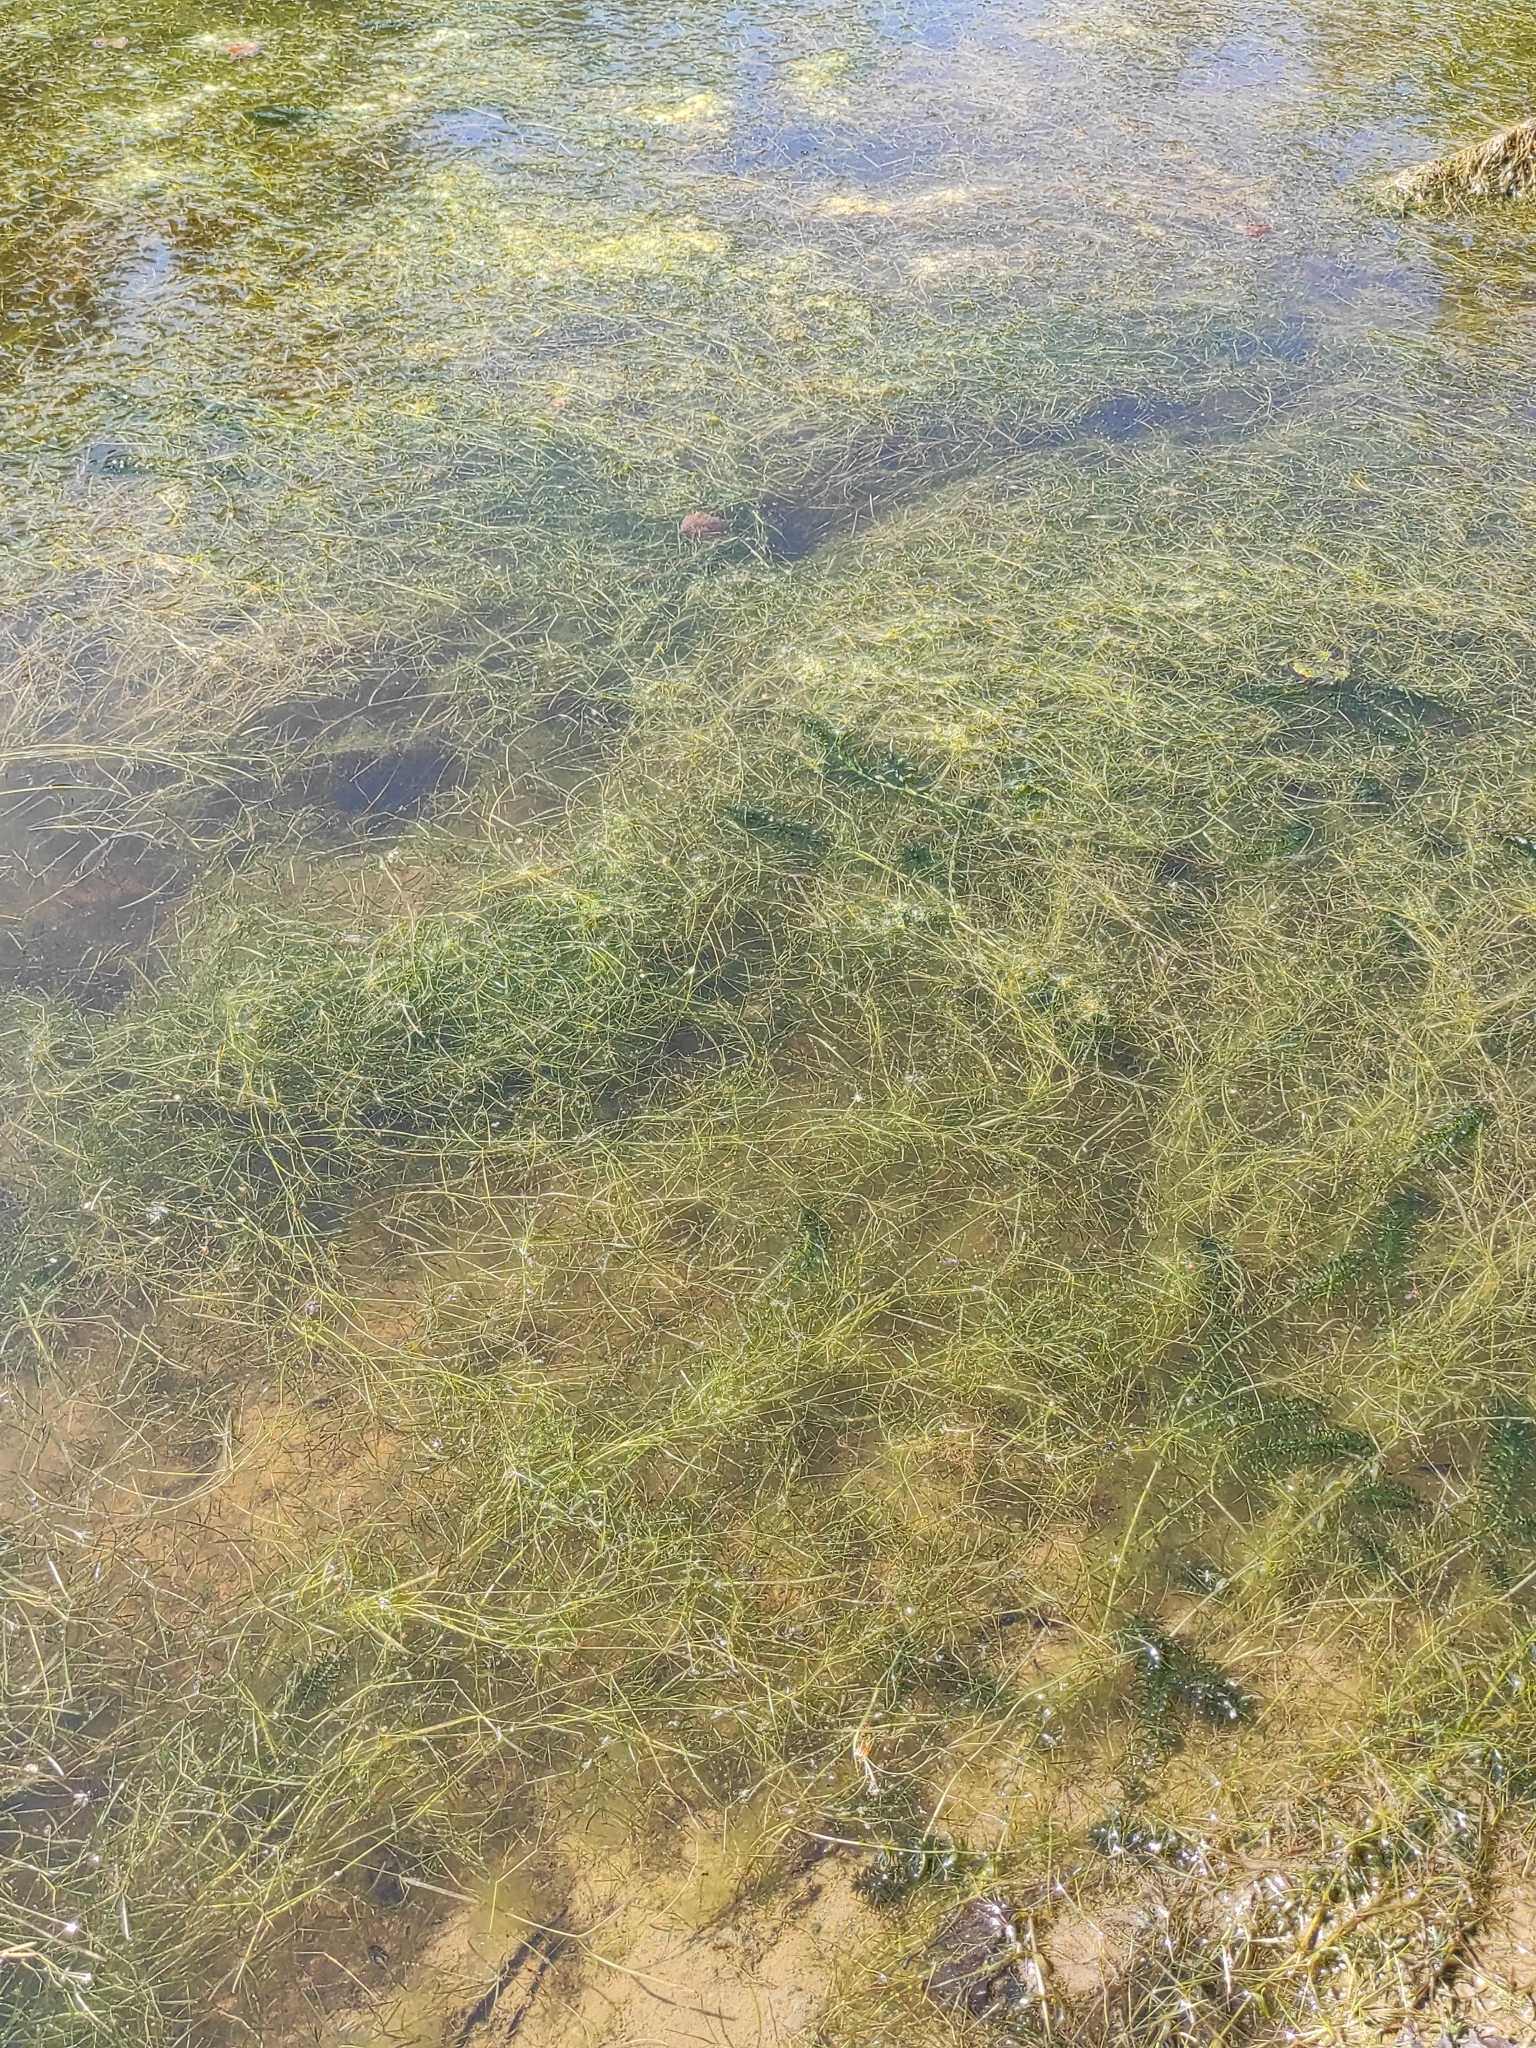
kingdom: Plantae
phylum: Tracheophyta
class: Liliopsida
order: Alismatales
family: Potamogetonaceae
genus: Potamogeton
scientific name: Potamogeton trichoides
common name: Hairlike pondweed
